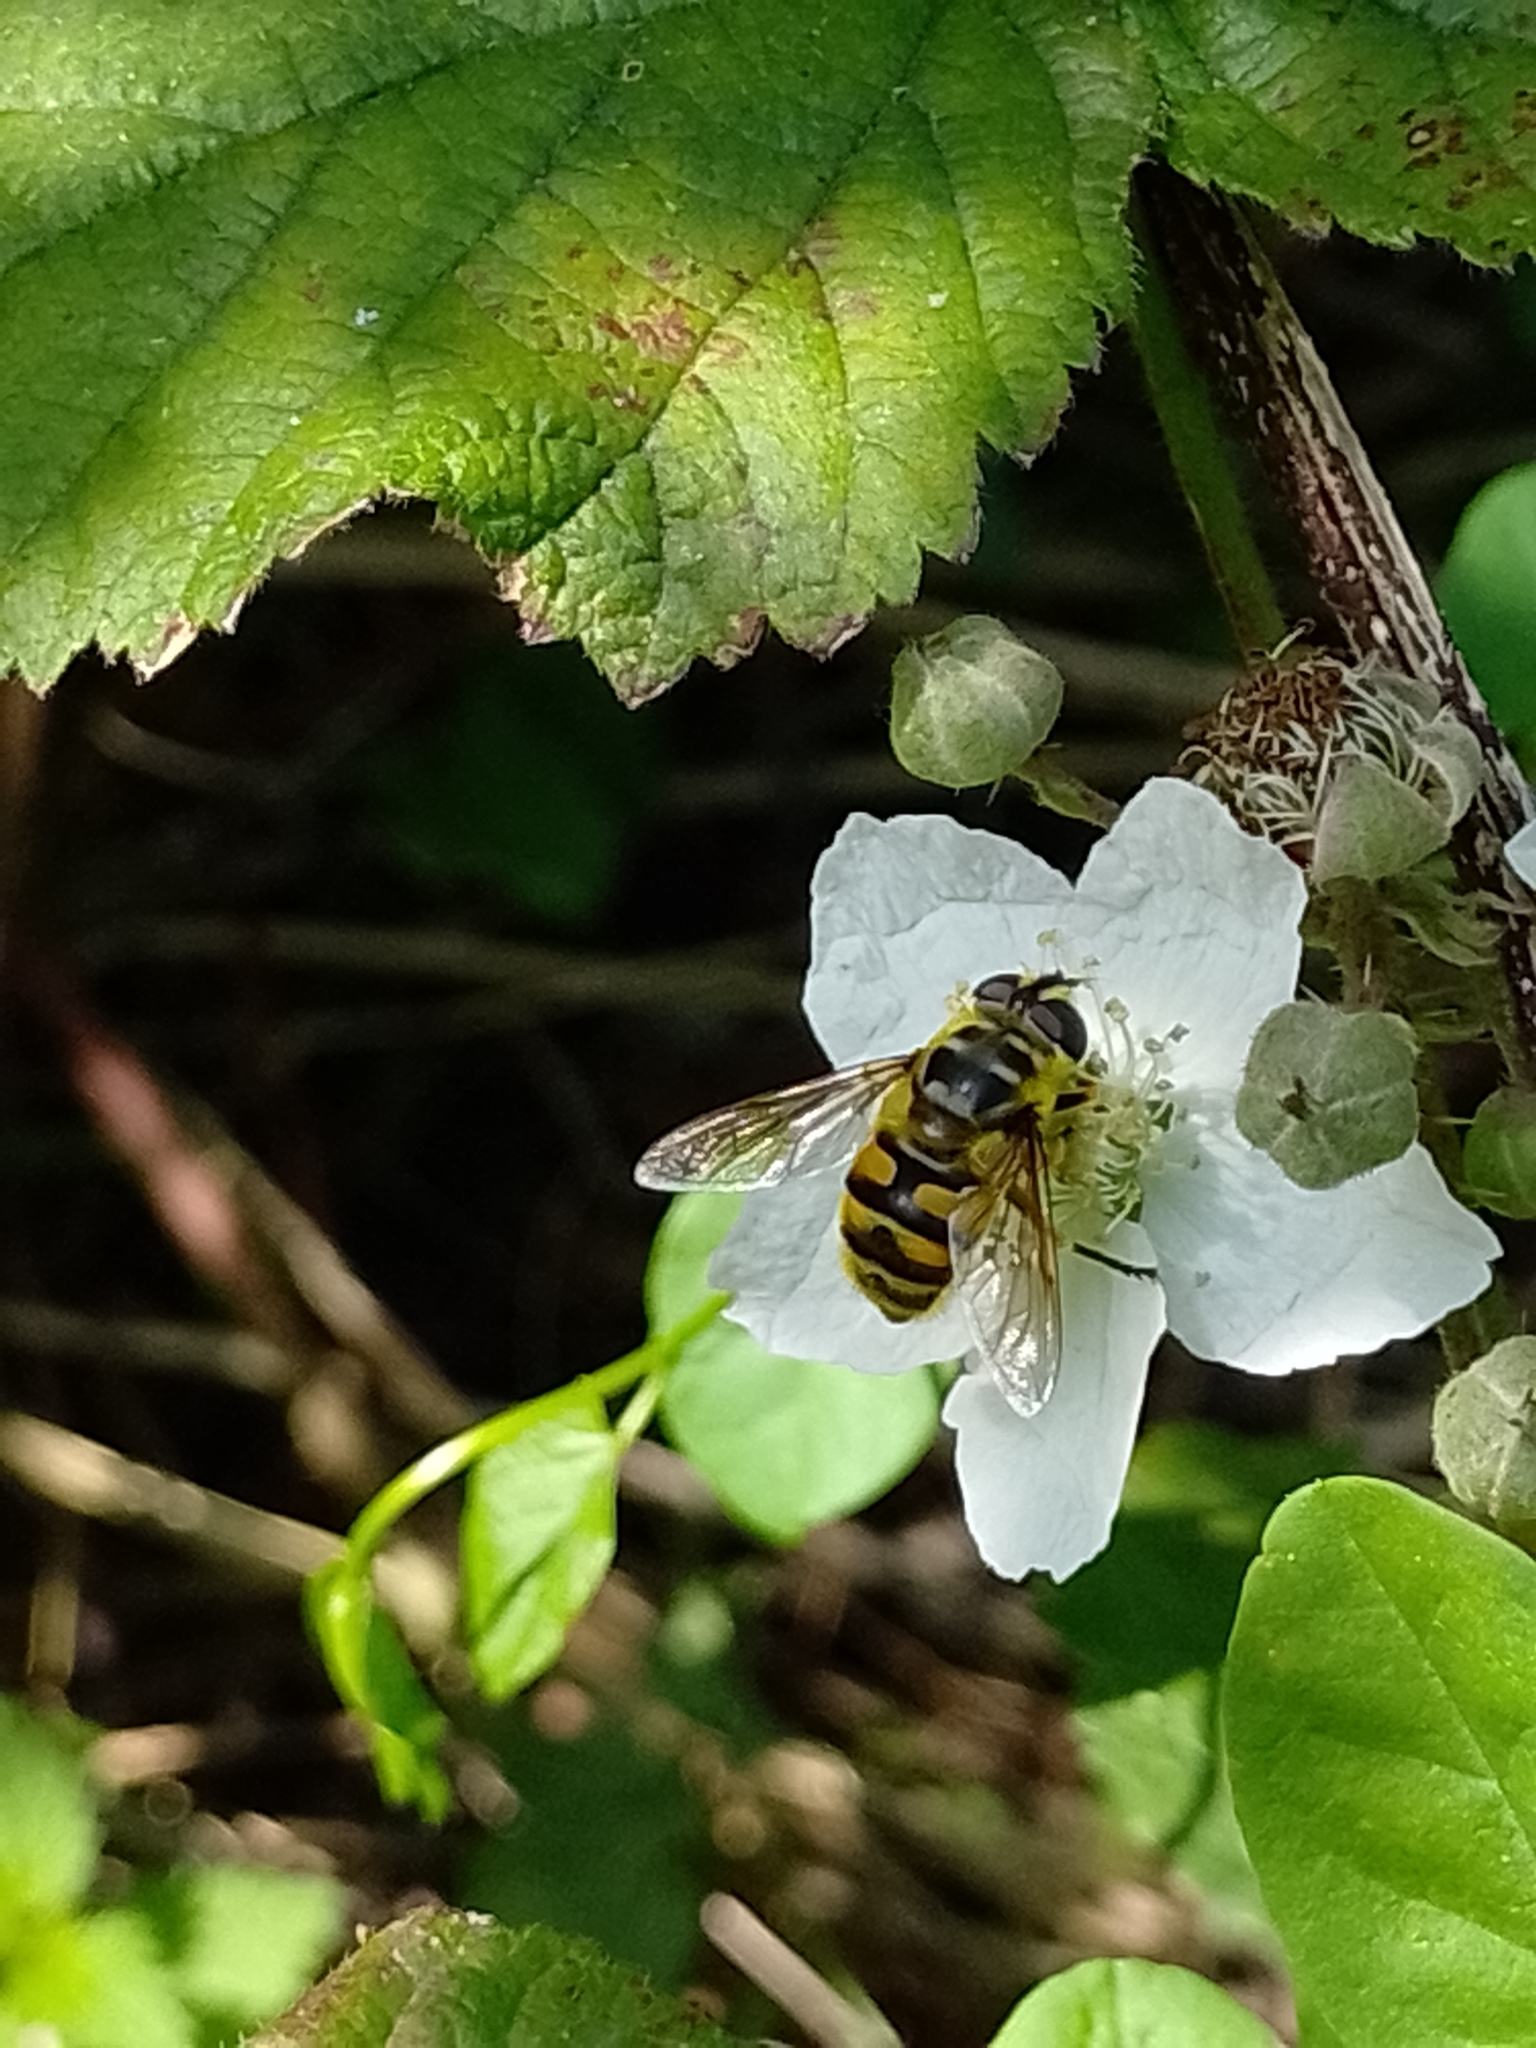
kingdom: Animalia
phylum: Arthropoda
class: Insecta
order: Diptera
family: Syrphidae
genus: Myathropa
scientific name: Myathropa florea
